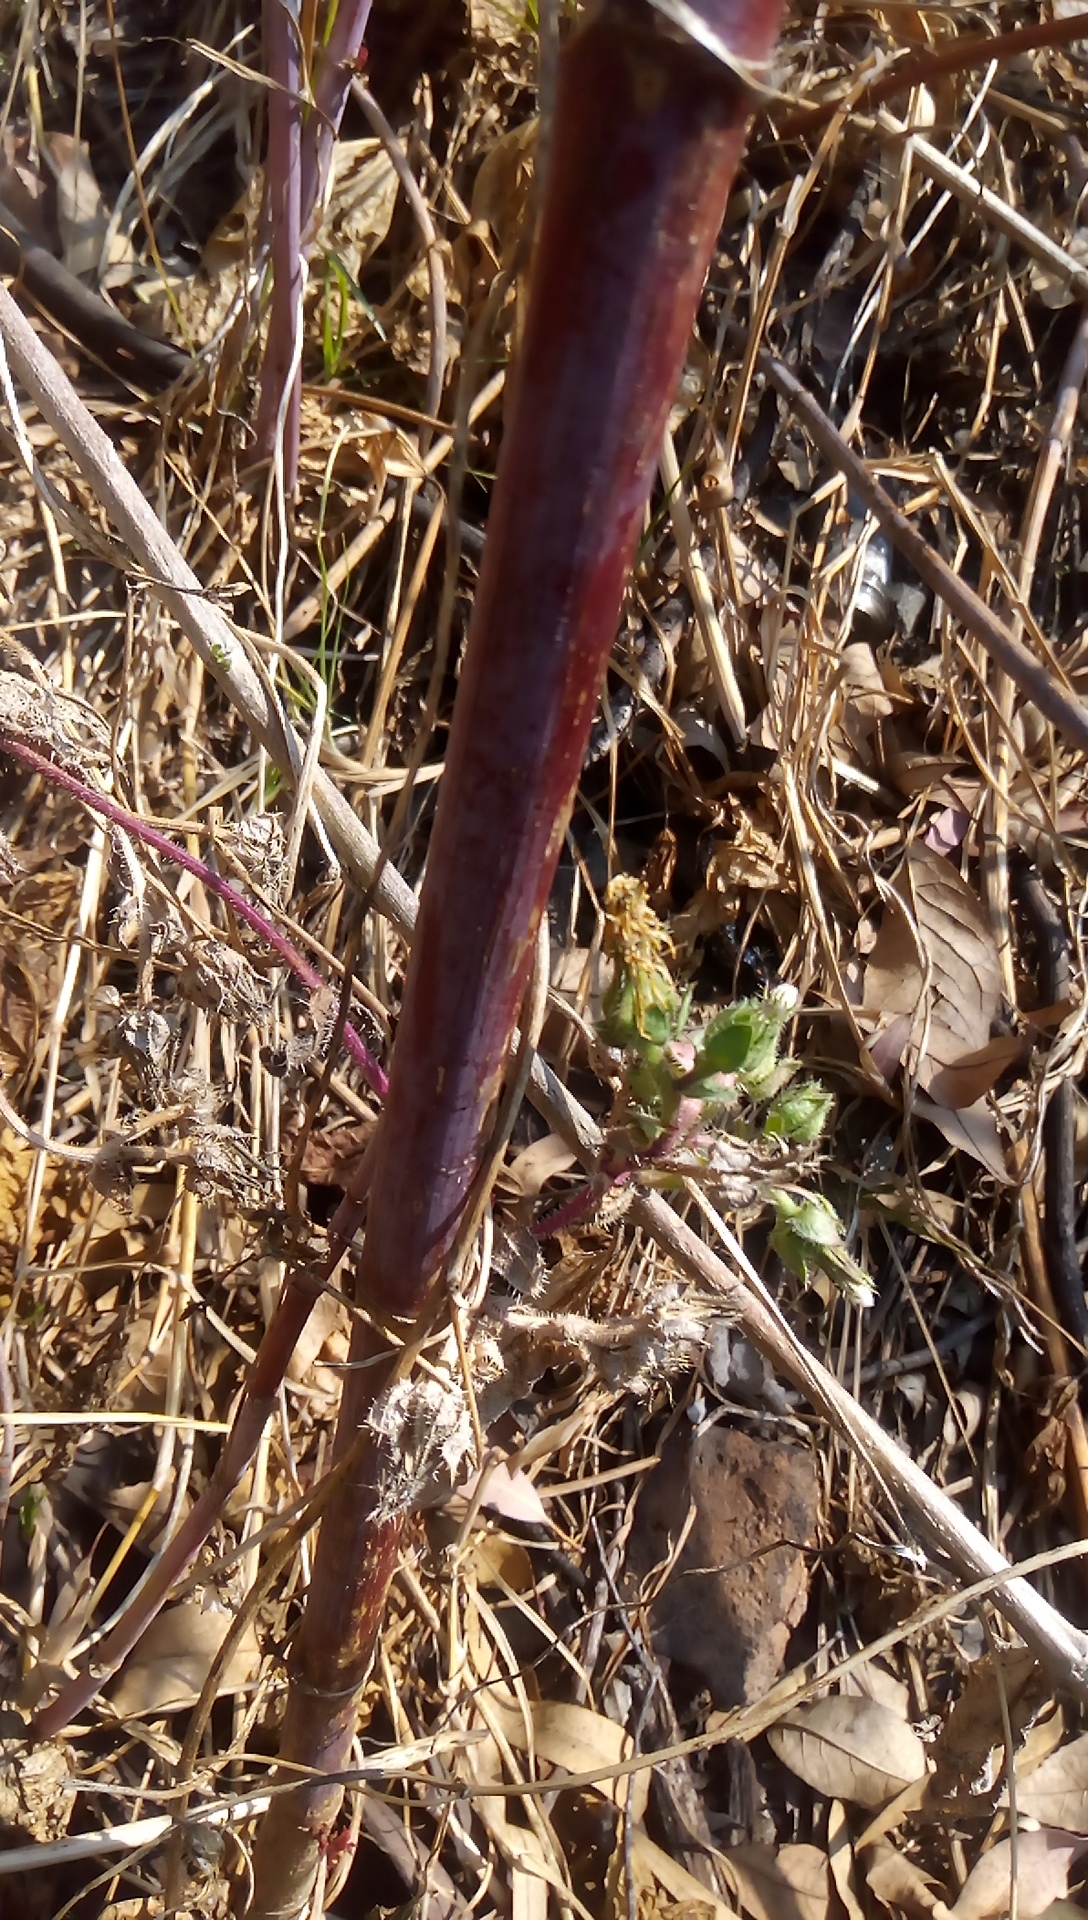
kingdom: Plantae
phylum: Tracheophyta
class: Magnoliopsida
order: Malpighiales
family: Euphorbiaceae
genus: Ricinus
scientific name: Ricinus communis
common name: Castor-oil-plant
